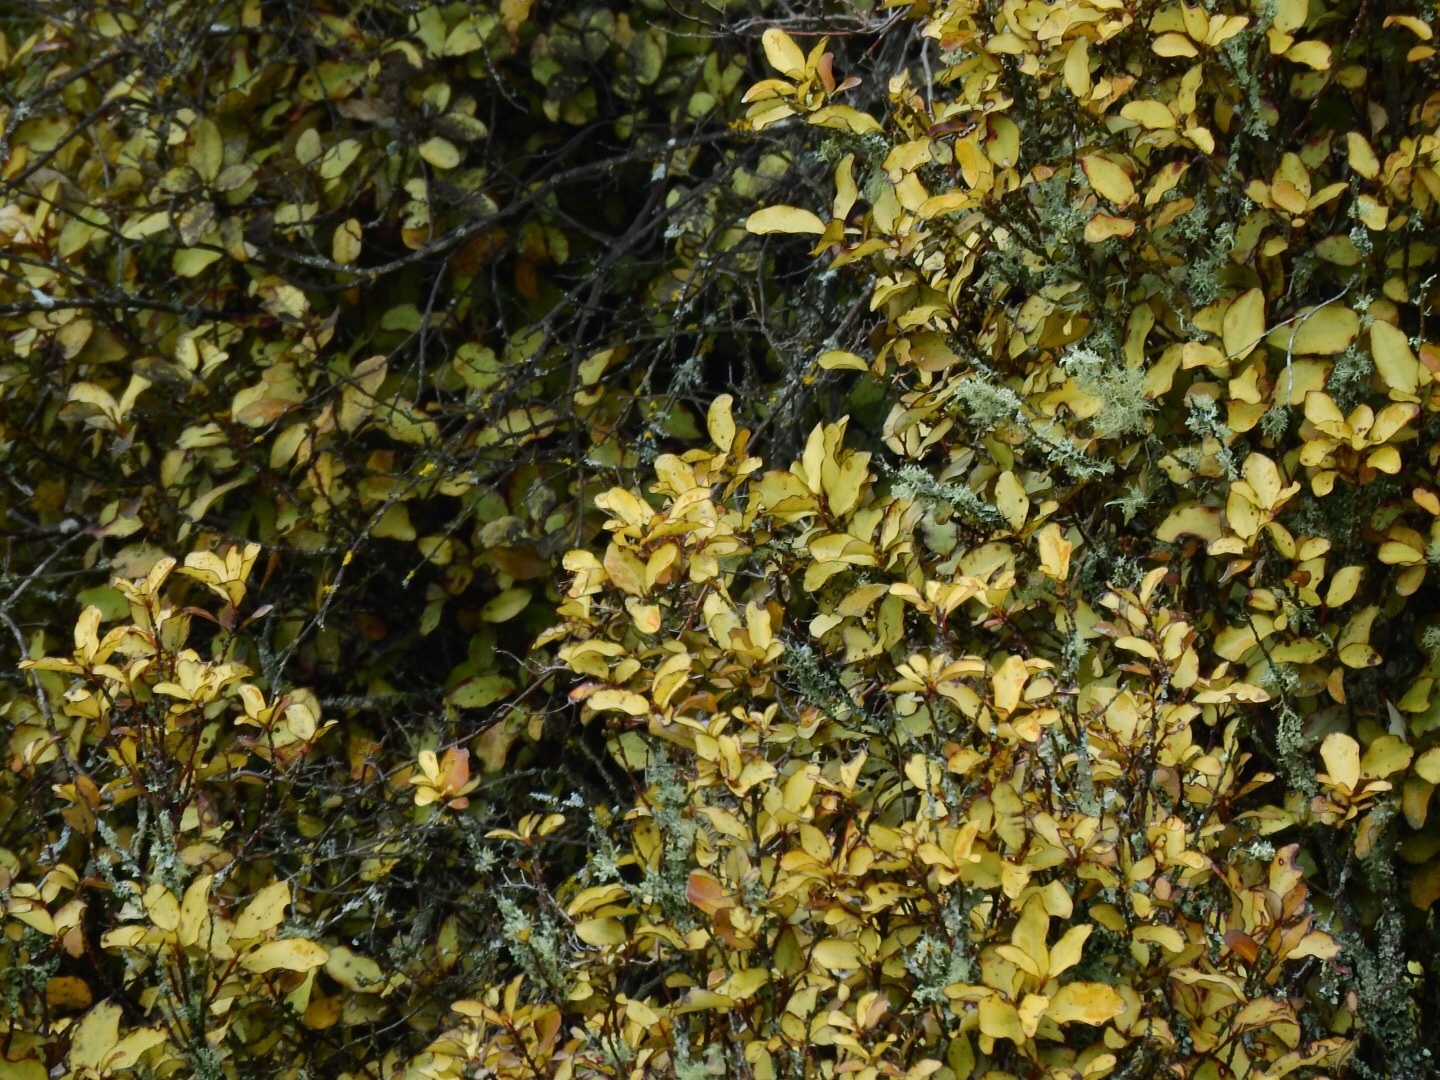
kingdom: Plantae
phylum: Tracheophyta
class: Magnoliopsida
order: Canellales
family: Winteraceae
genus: Pseudowintera
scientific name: Pseudowintera colorata
